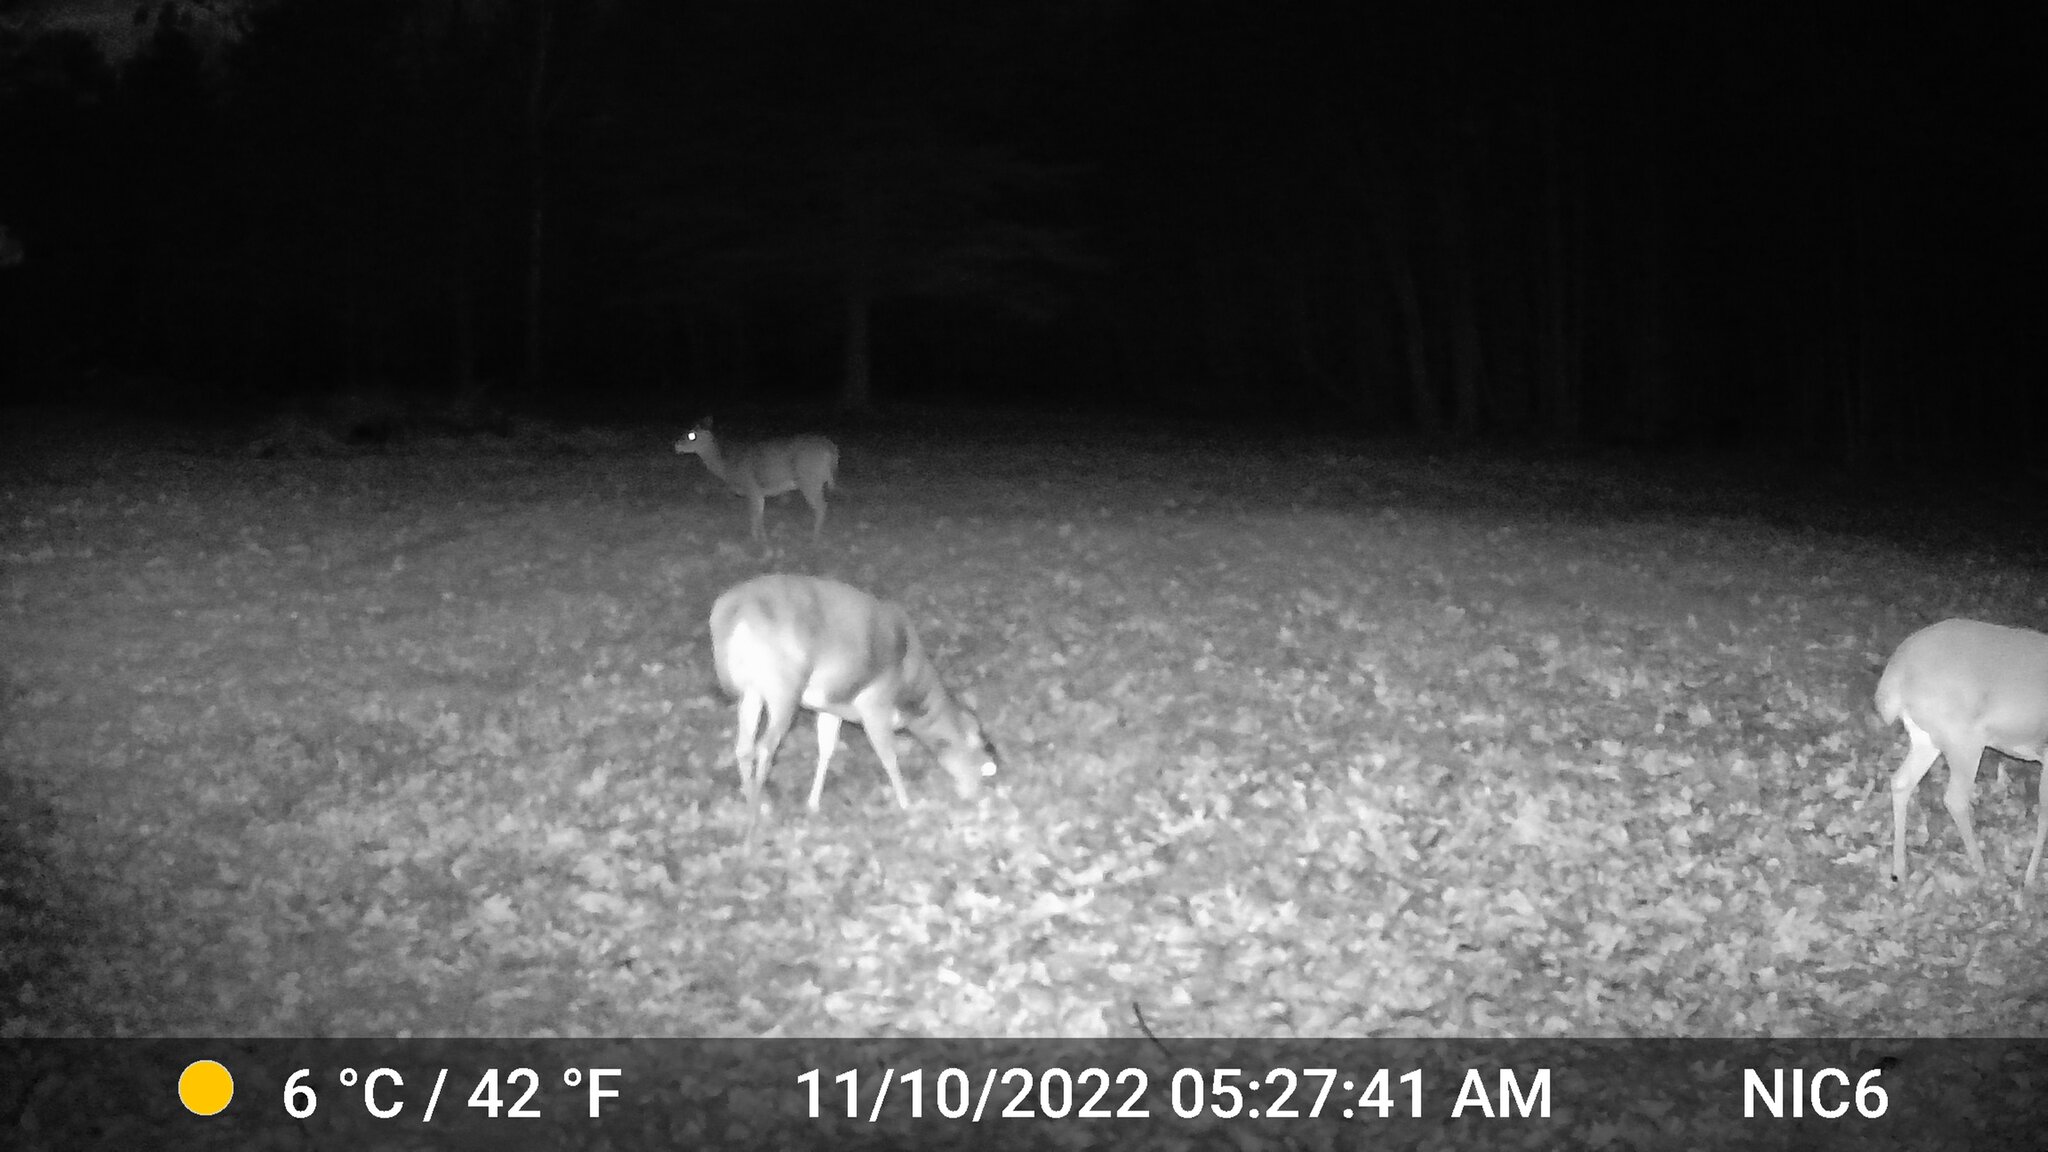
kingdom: Animalia
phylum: Chordata
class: Mammalia
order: Artiodactyla
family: Cervidae
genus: Odocoileus
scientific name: Odocoileus virginianus
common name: White-tailed deer
